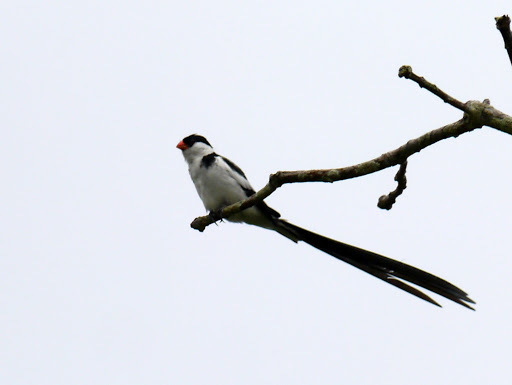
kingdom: Animalia
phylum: Chordata
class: Aves
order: Passeriformes
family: Viduidae
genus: Vidua
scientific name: Vidua macroura
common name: Pin-tailed whydah
